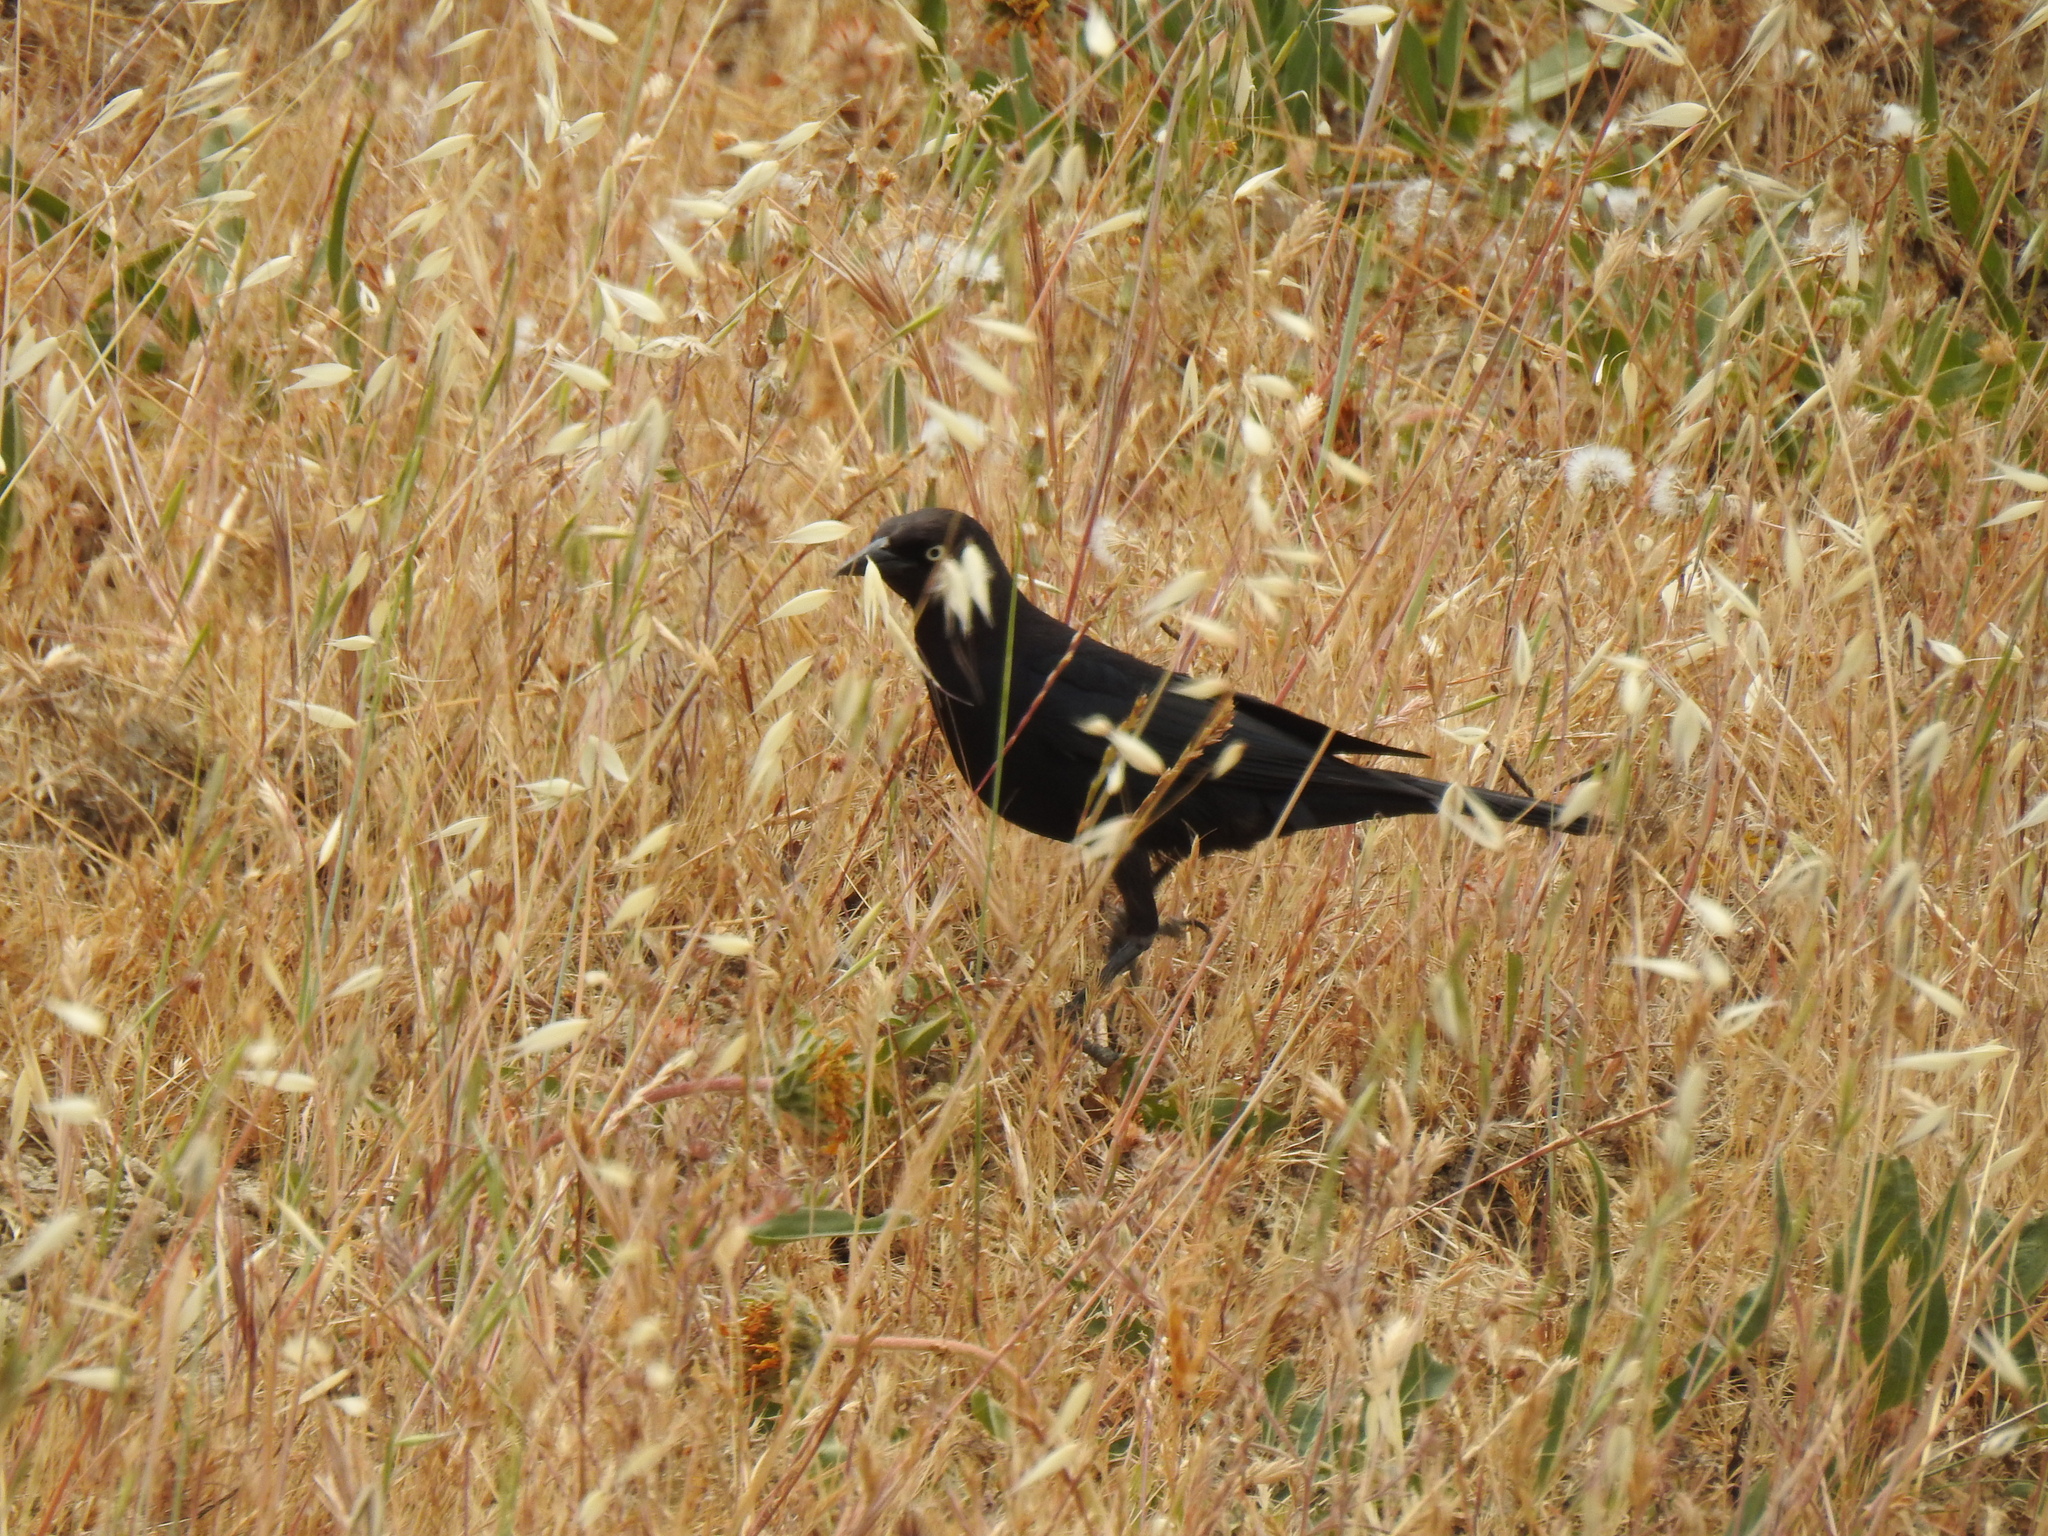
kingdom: Animalia
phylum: Chordata
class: Aves
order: Passeriformes
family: Icteridae
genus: Euphagus
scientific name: Euphagus cyanocephalus
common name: Brewer's blackbird
